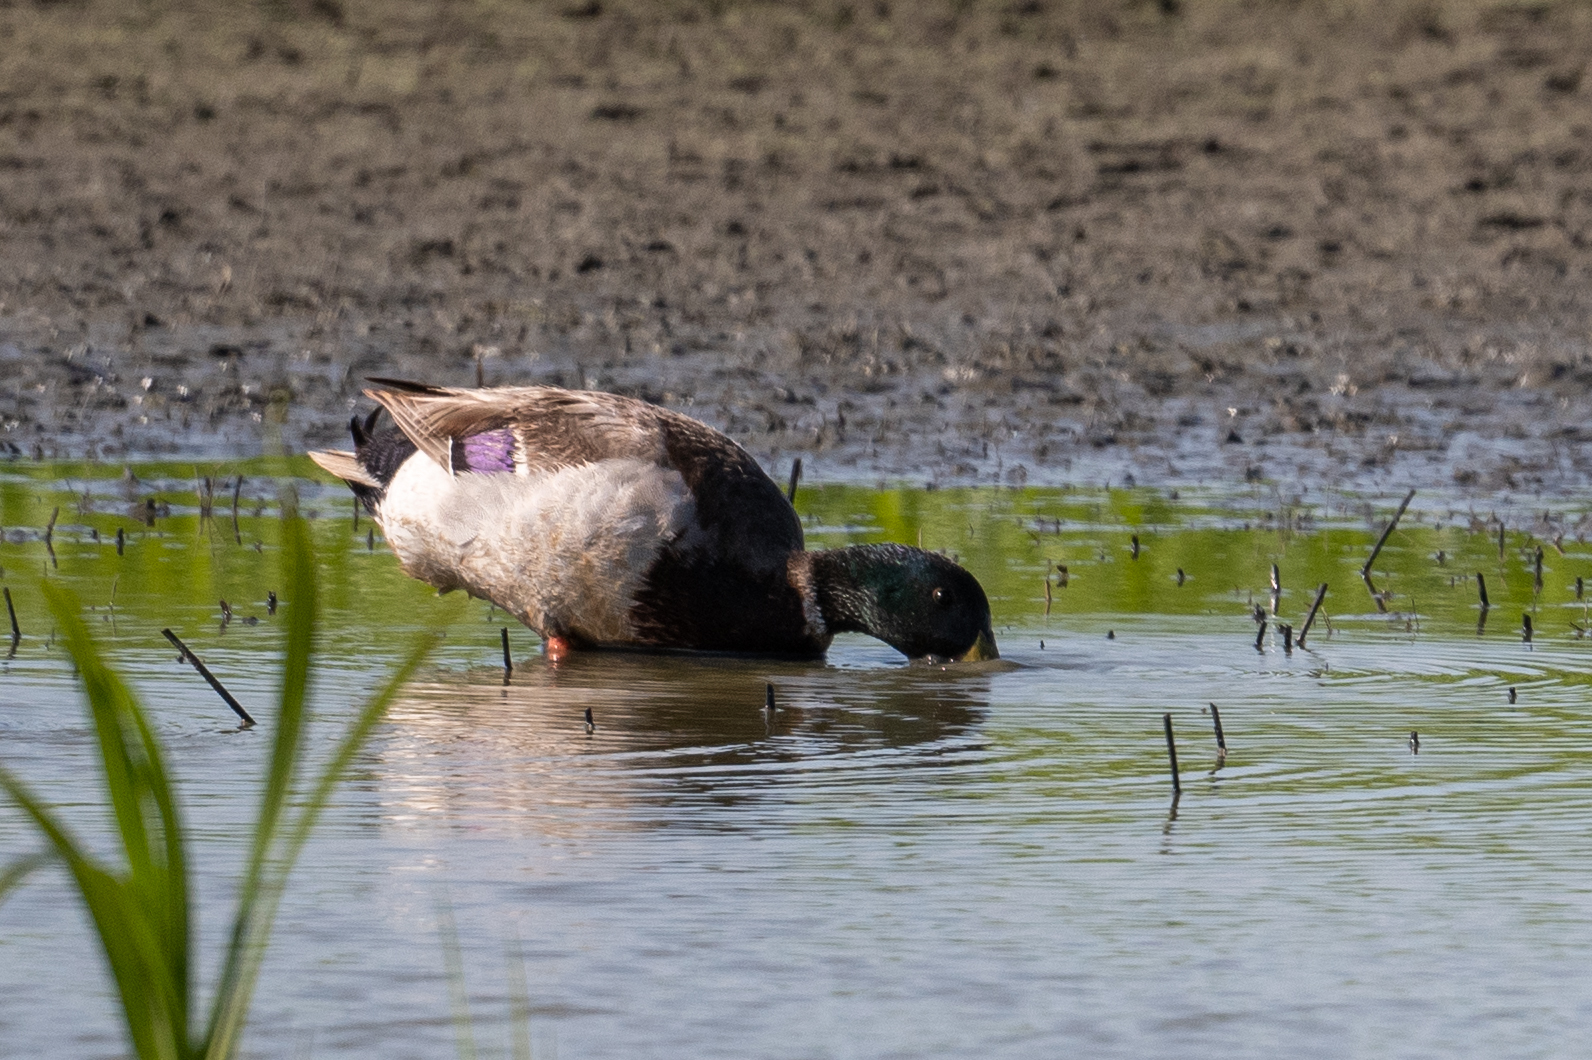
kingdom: Animalia
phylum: Chordata
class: Aves
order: Anseriformes
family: Anatidae
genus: Anas
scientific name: Anas platyrhynchos
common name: Mallard
